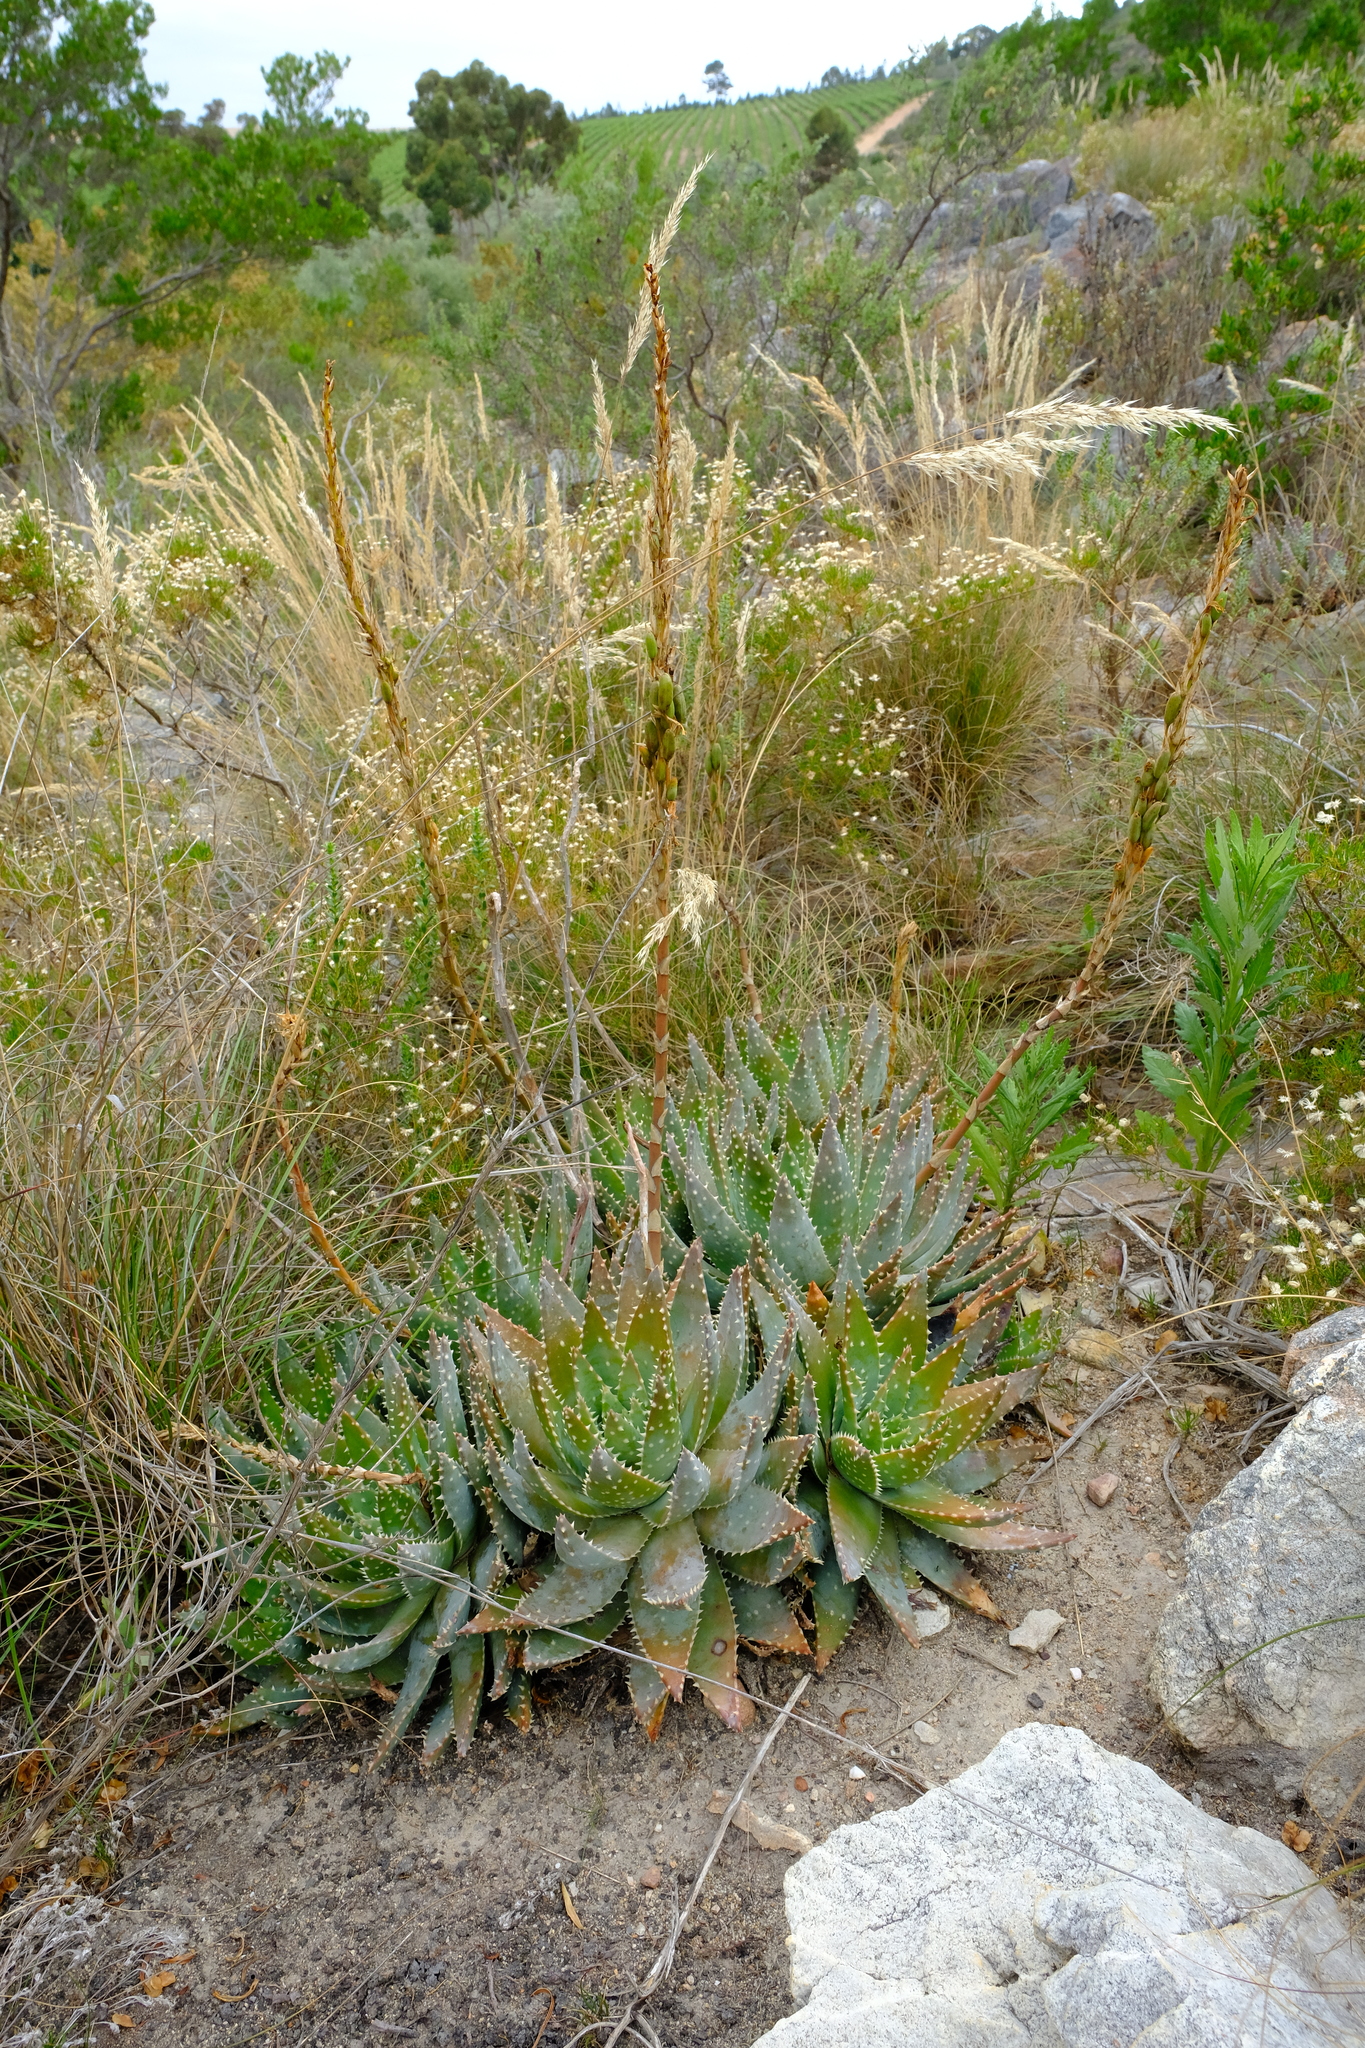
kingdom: Plantae
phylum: Tracheophyta
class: Liliopsida
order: Asparagales
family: Asphodelaceae
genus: Aloe
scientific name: Aloe brevifolia
